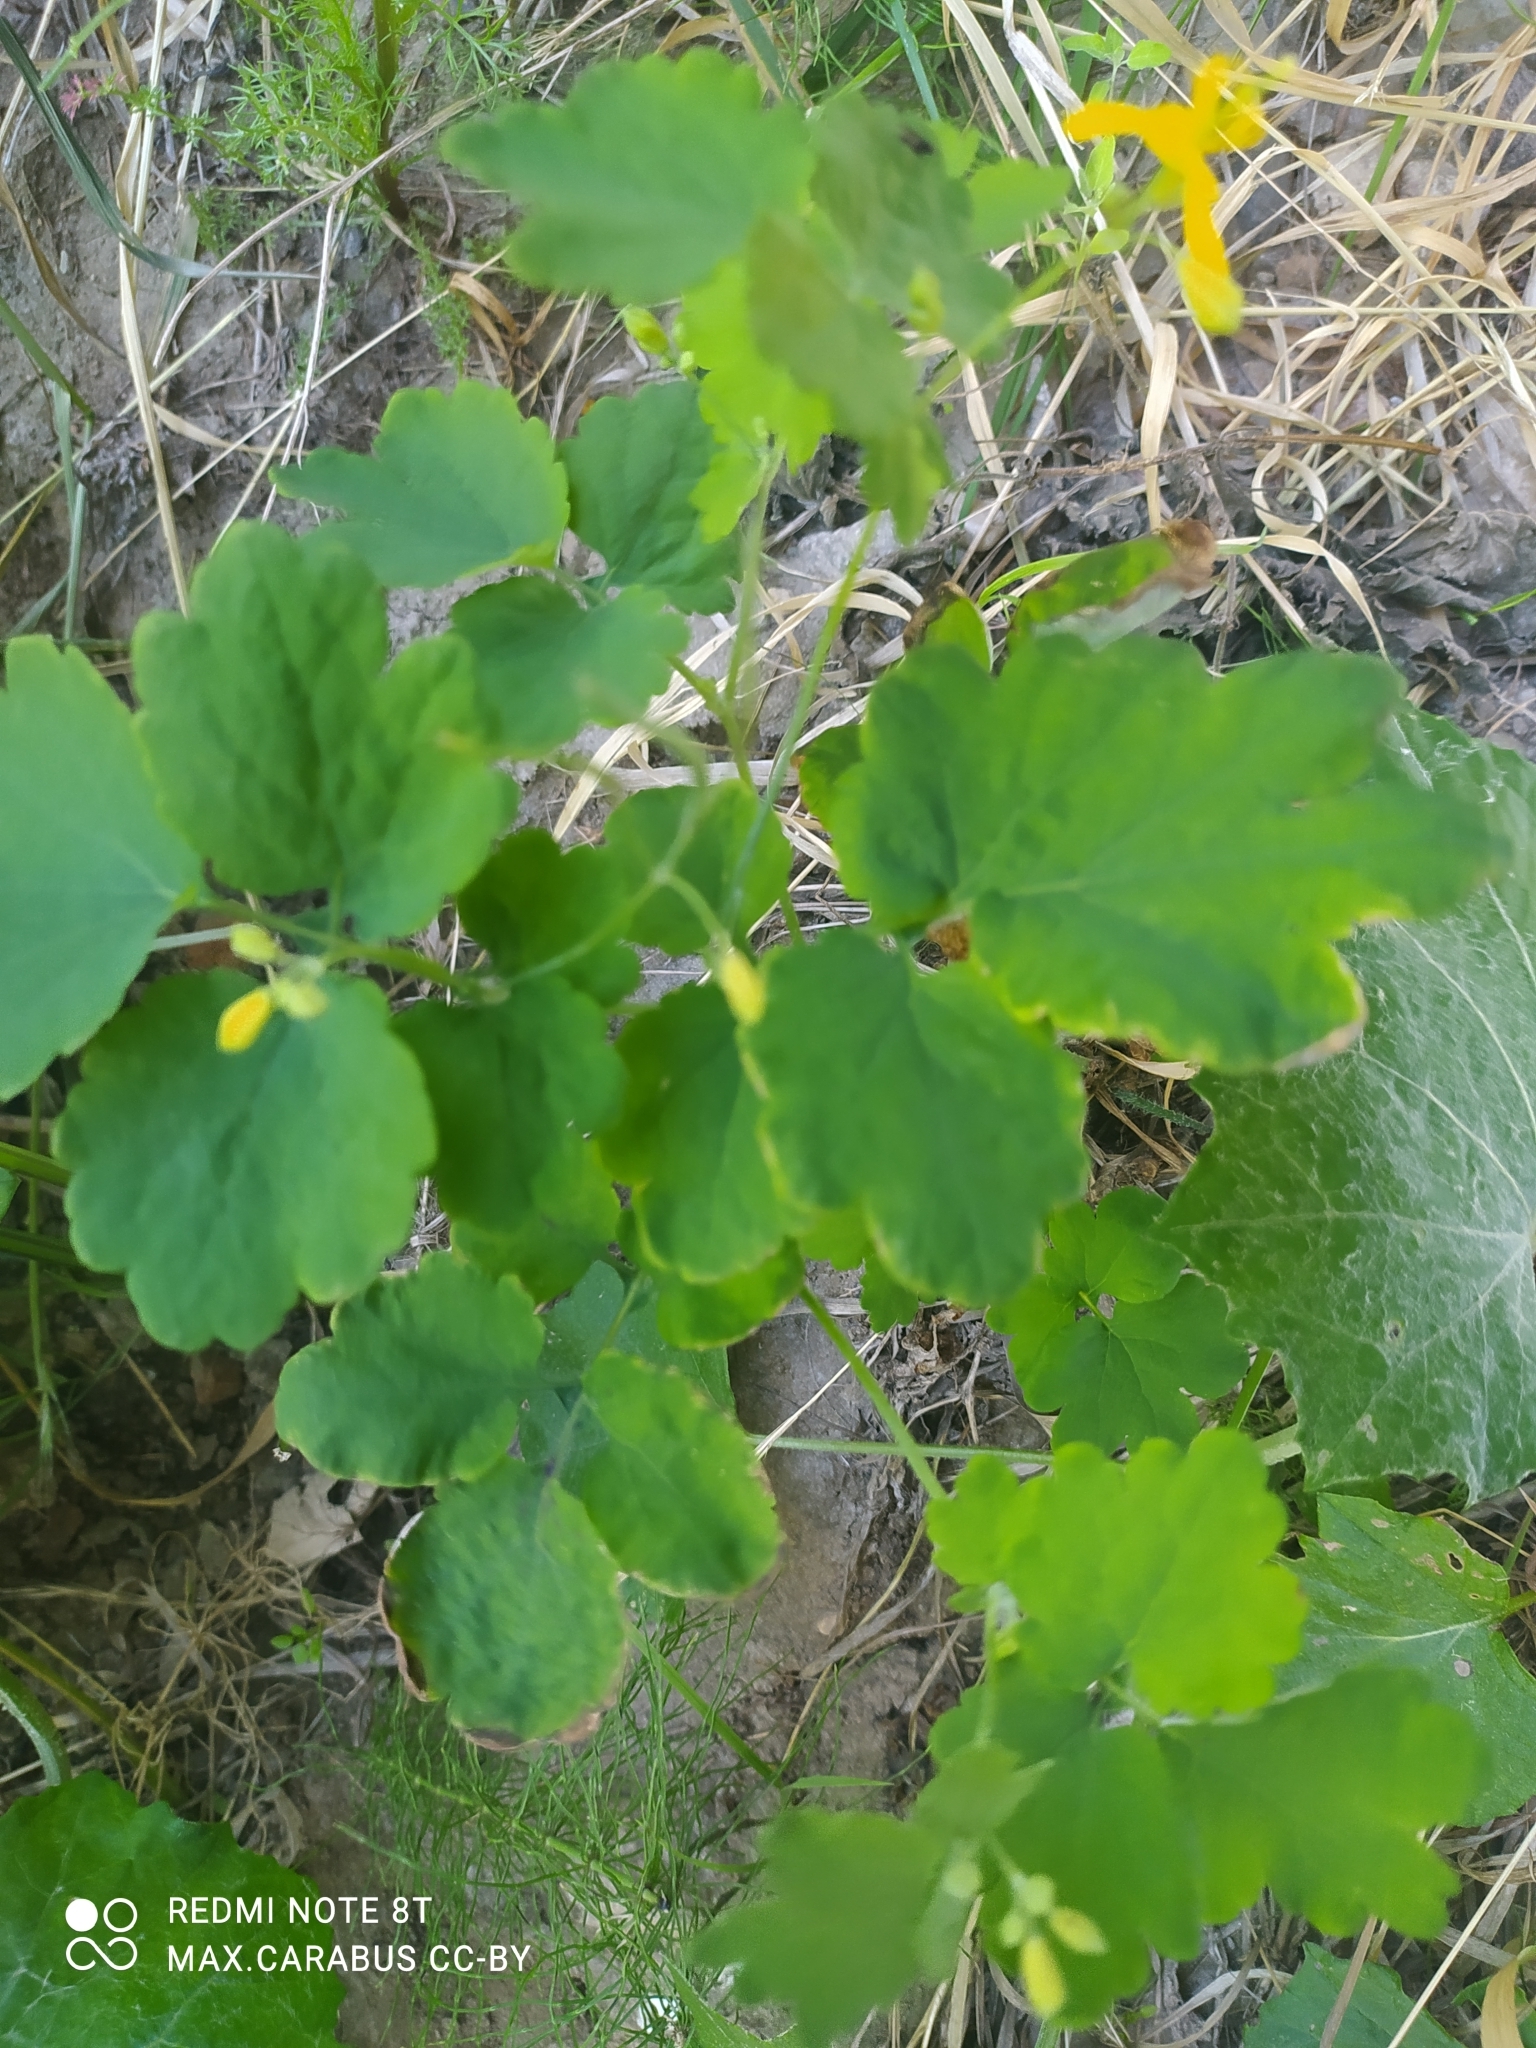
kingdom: Plantae
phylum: Tracheophyta
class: Magnoliopsida
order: Ranunculales
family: Papaveraceae
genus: Chelidonium
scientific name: Chelidonium majus
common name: Greater celandine
